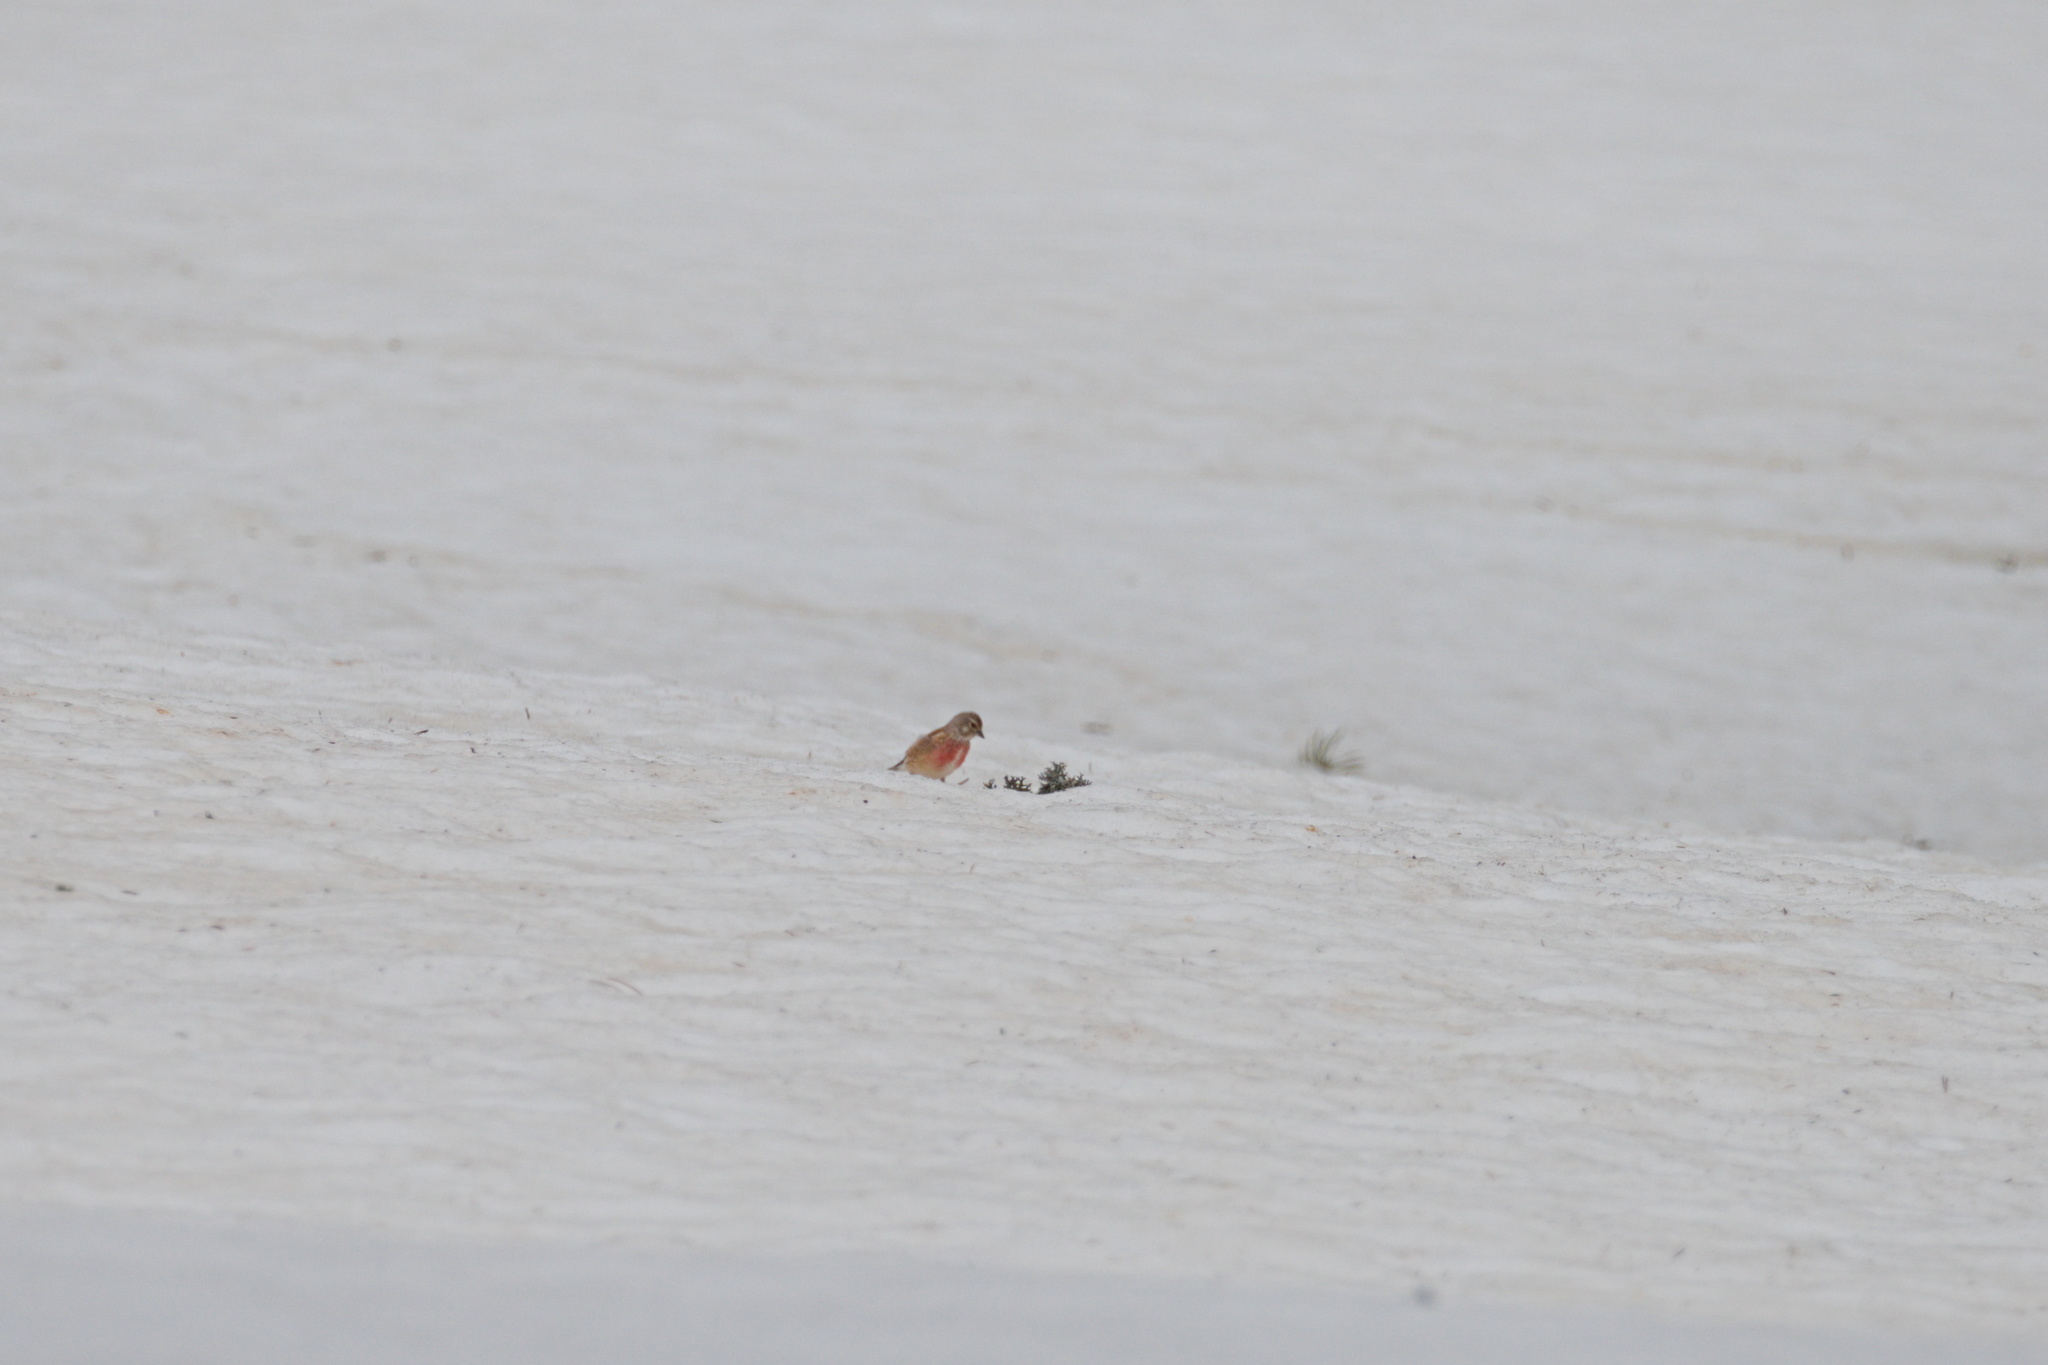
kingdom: Animalia
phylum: Chordata
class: Aves
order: Passeriformes
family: Fringillidae
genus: Linaria
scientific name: Linaria cannabina
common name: Common linnet
